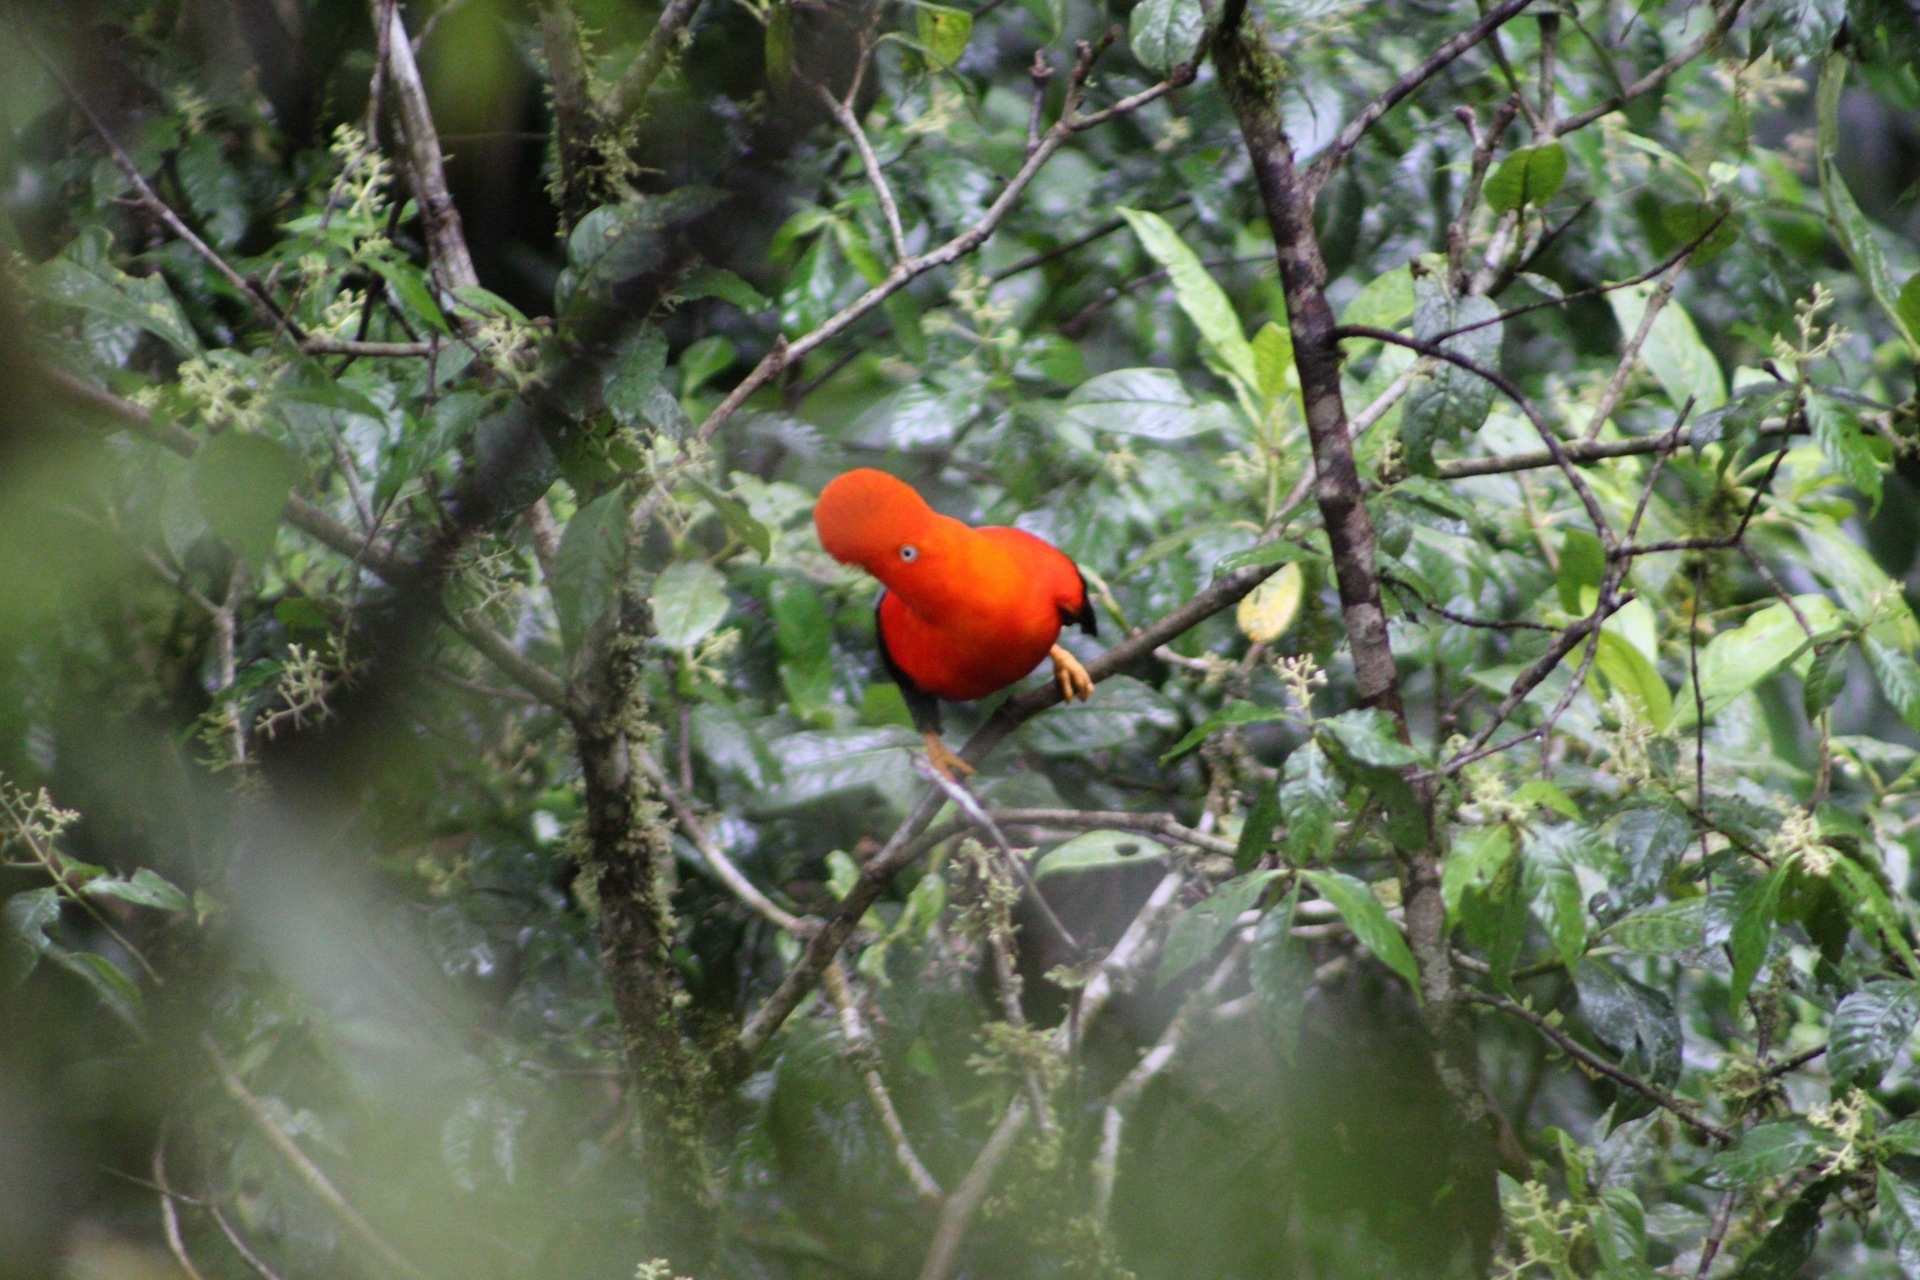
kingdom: Animalia
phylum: Chordata
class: Aves
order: Passeriformes
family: Cotingidae
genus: Rupicola
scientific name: Rupicola peruvianus
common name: Andean cock-of-the-rock
